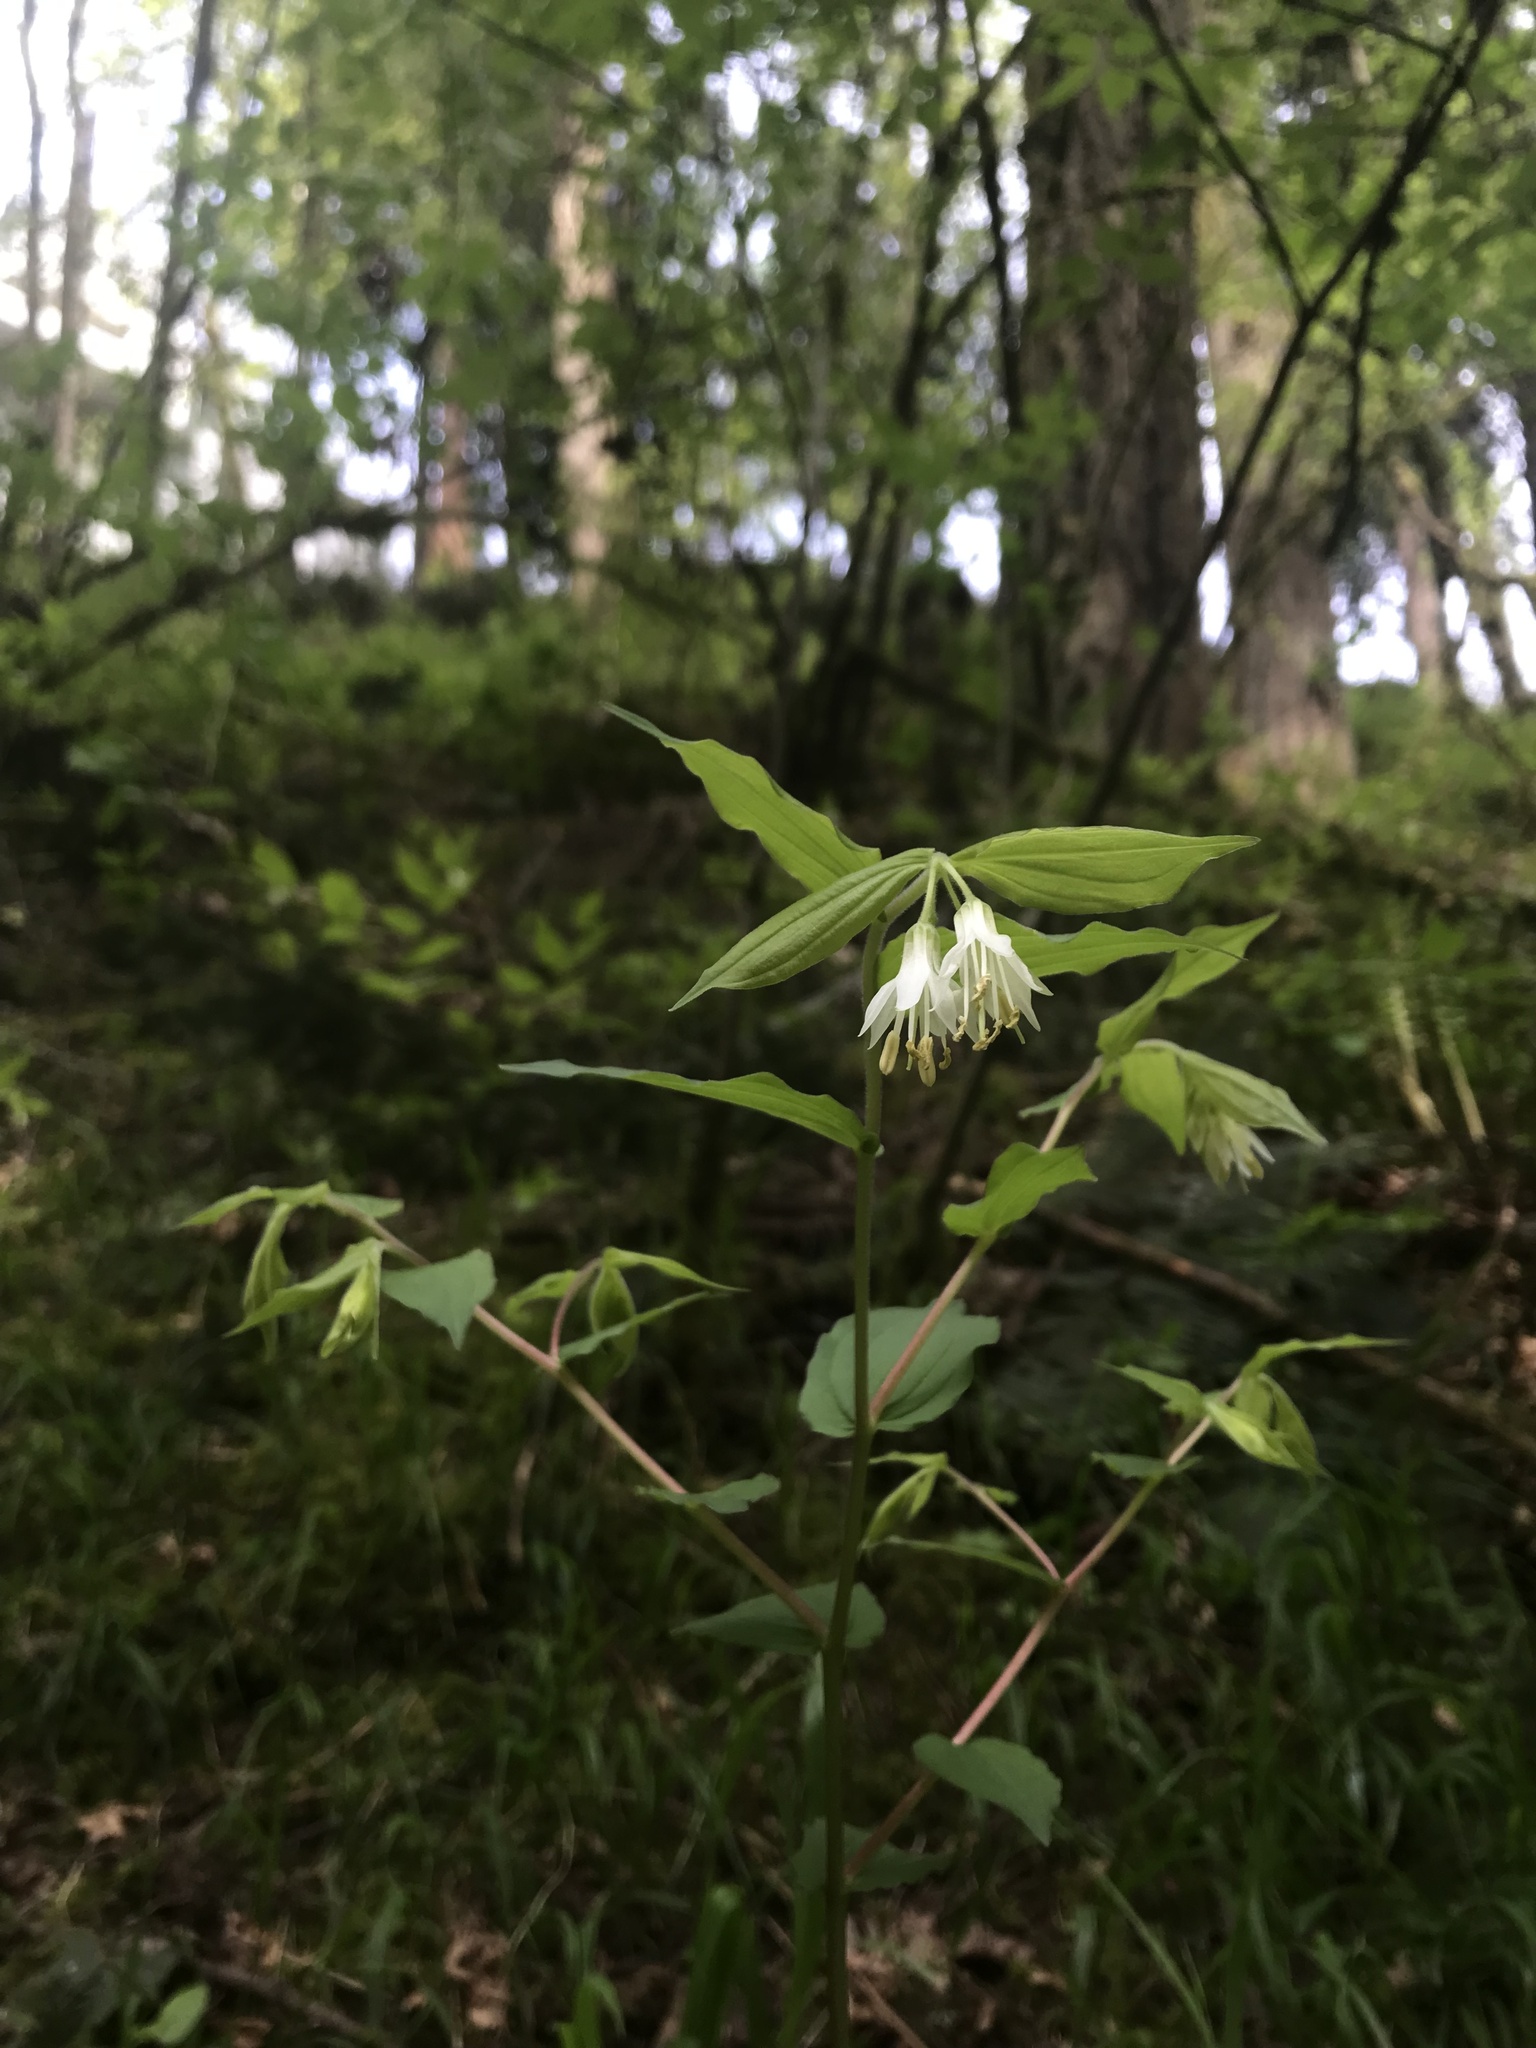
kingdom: Plantae
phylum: Tracheophyta
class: Liliopsida
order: Liliales
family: Liliaceae
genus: Prosartes
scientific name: Prosartes hookeri
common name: Fairy-bells
